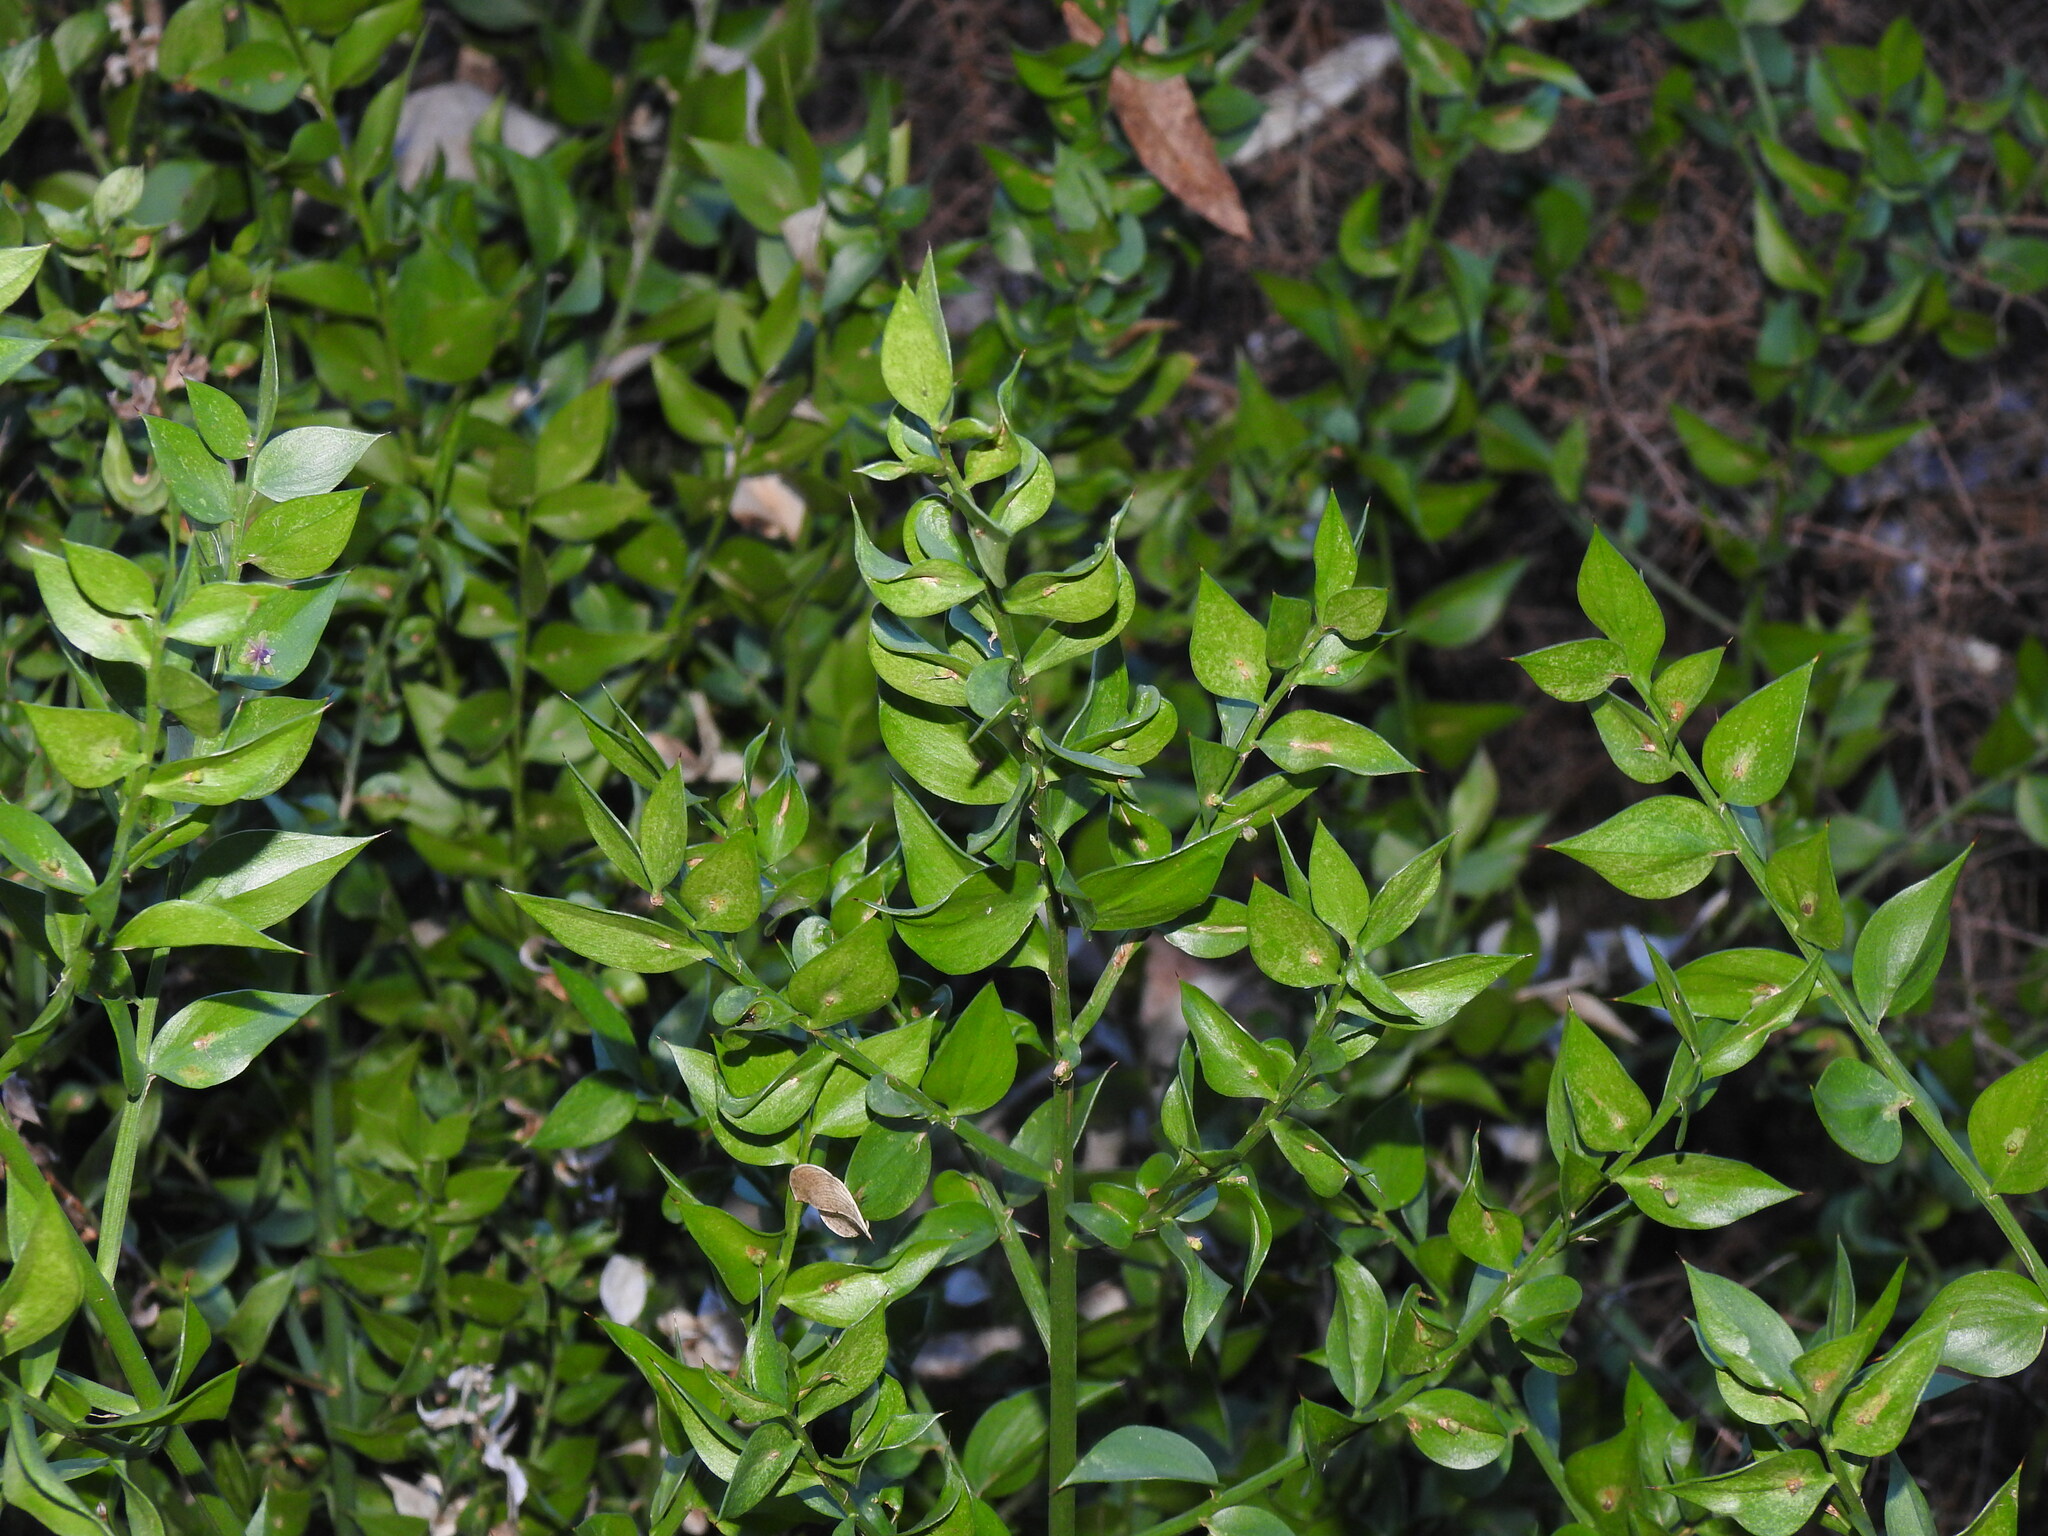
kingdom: Plantae
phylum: Tracheophyta
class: Liliopsida
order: Asparagales
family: Asparagaceae
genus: Ruscus
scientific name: Ruscus aculeatus
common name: Butcher's-broom
